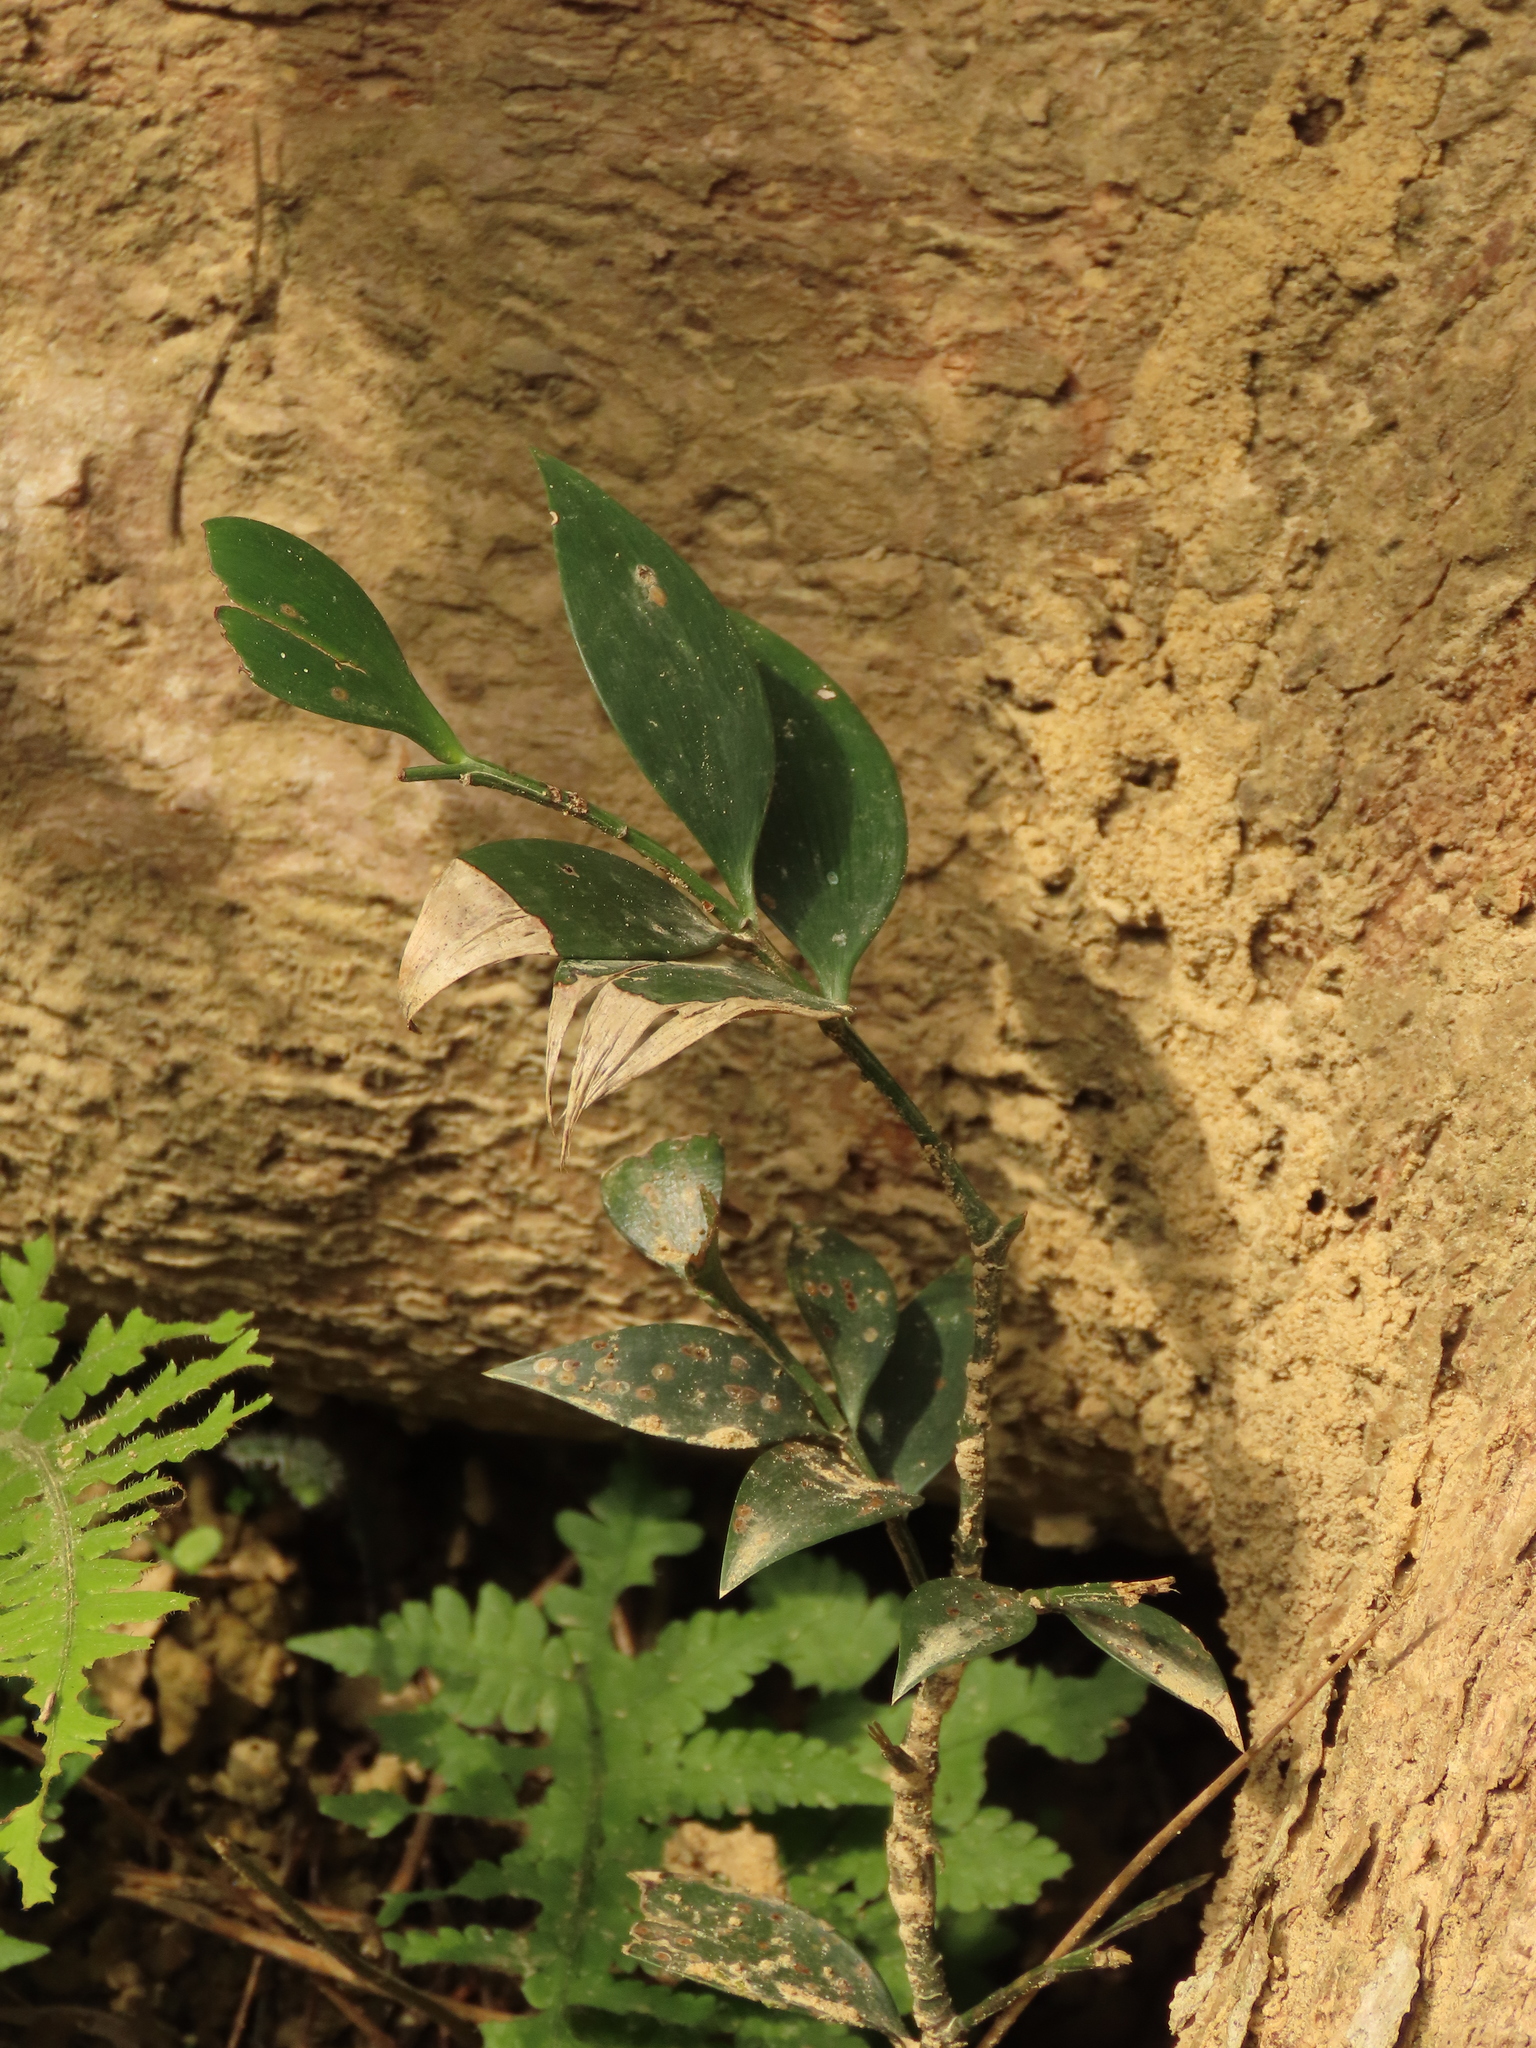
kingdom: Plantae
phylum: Tracheophyta
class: Pinopsida
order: Pinales
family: Podocarpaceae
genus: Nageia
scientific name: Nageia nagi
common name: Kaphal
